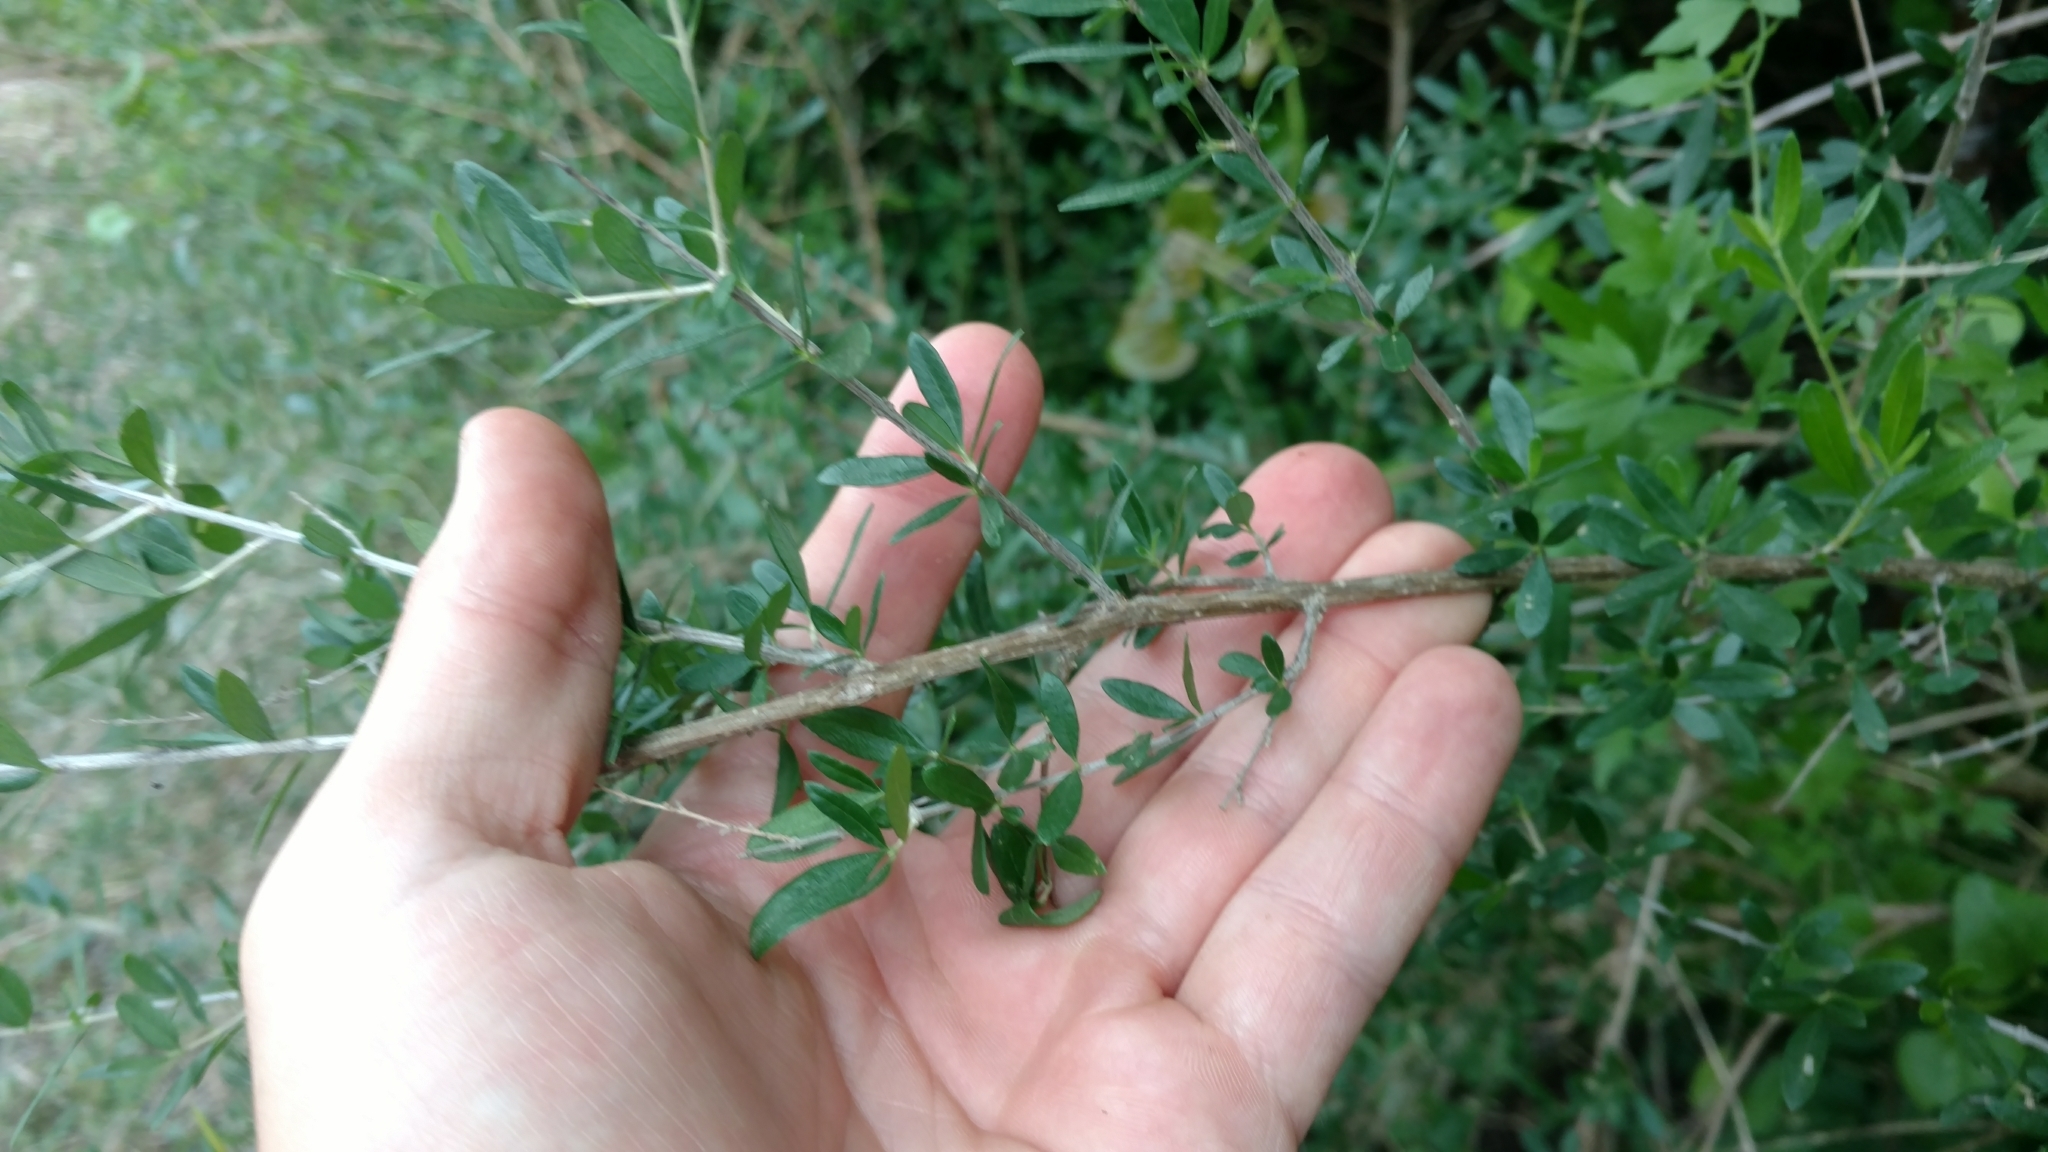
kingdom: Plantae
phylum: Tracheophyta
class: Magnoliopsida
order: Lamiales
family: Verbenaceae
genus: Aloysia
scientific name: Aloysia gratissima
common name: Common bee-brush
